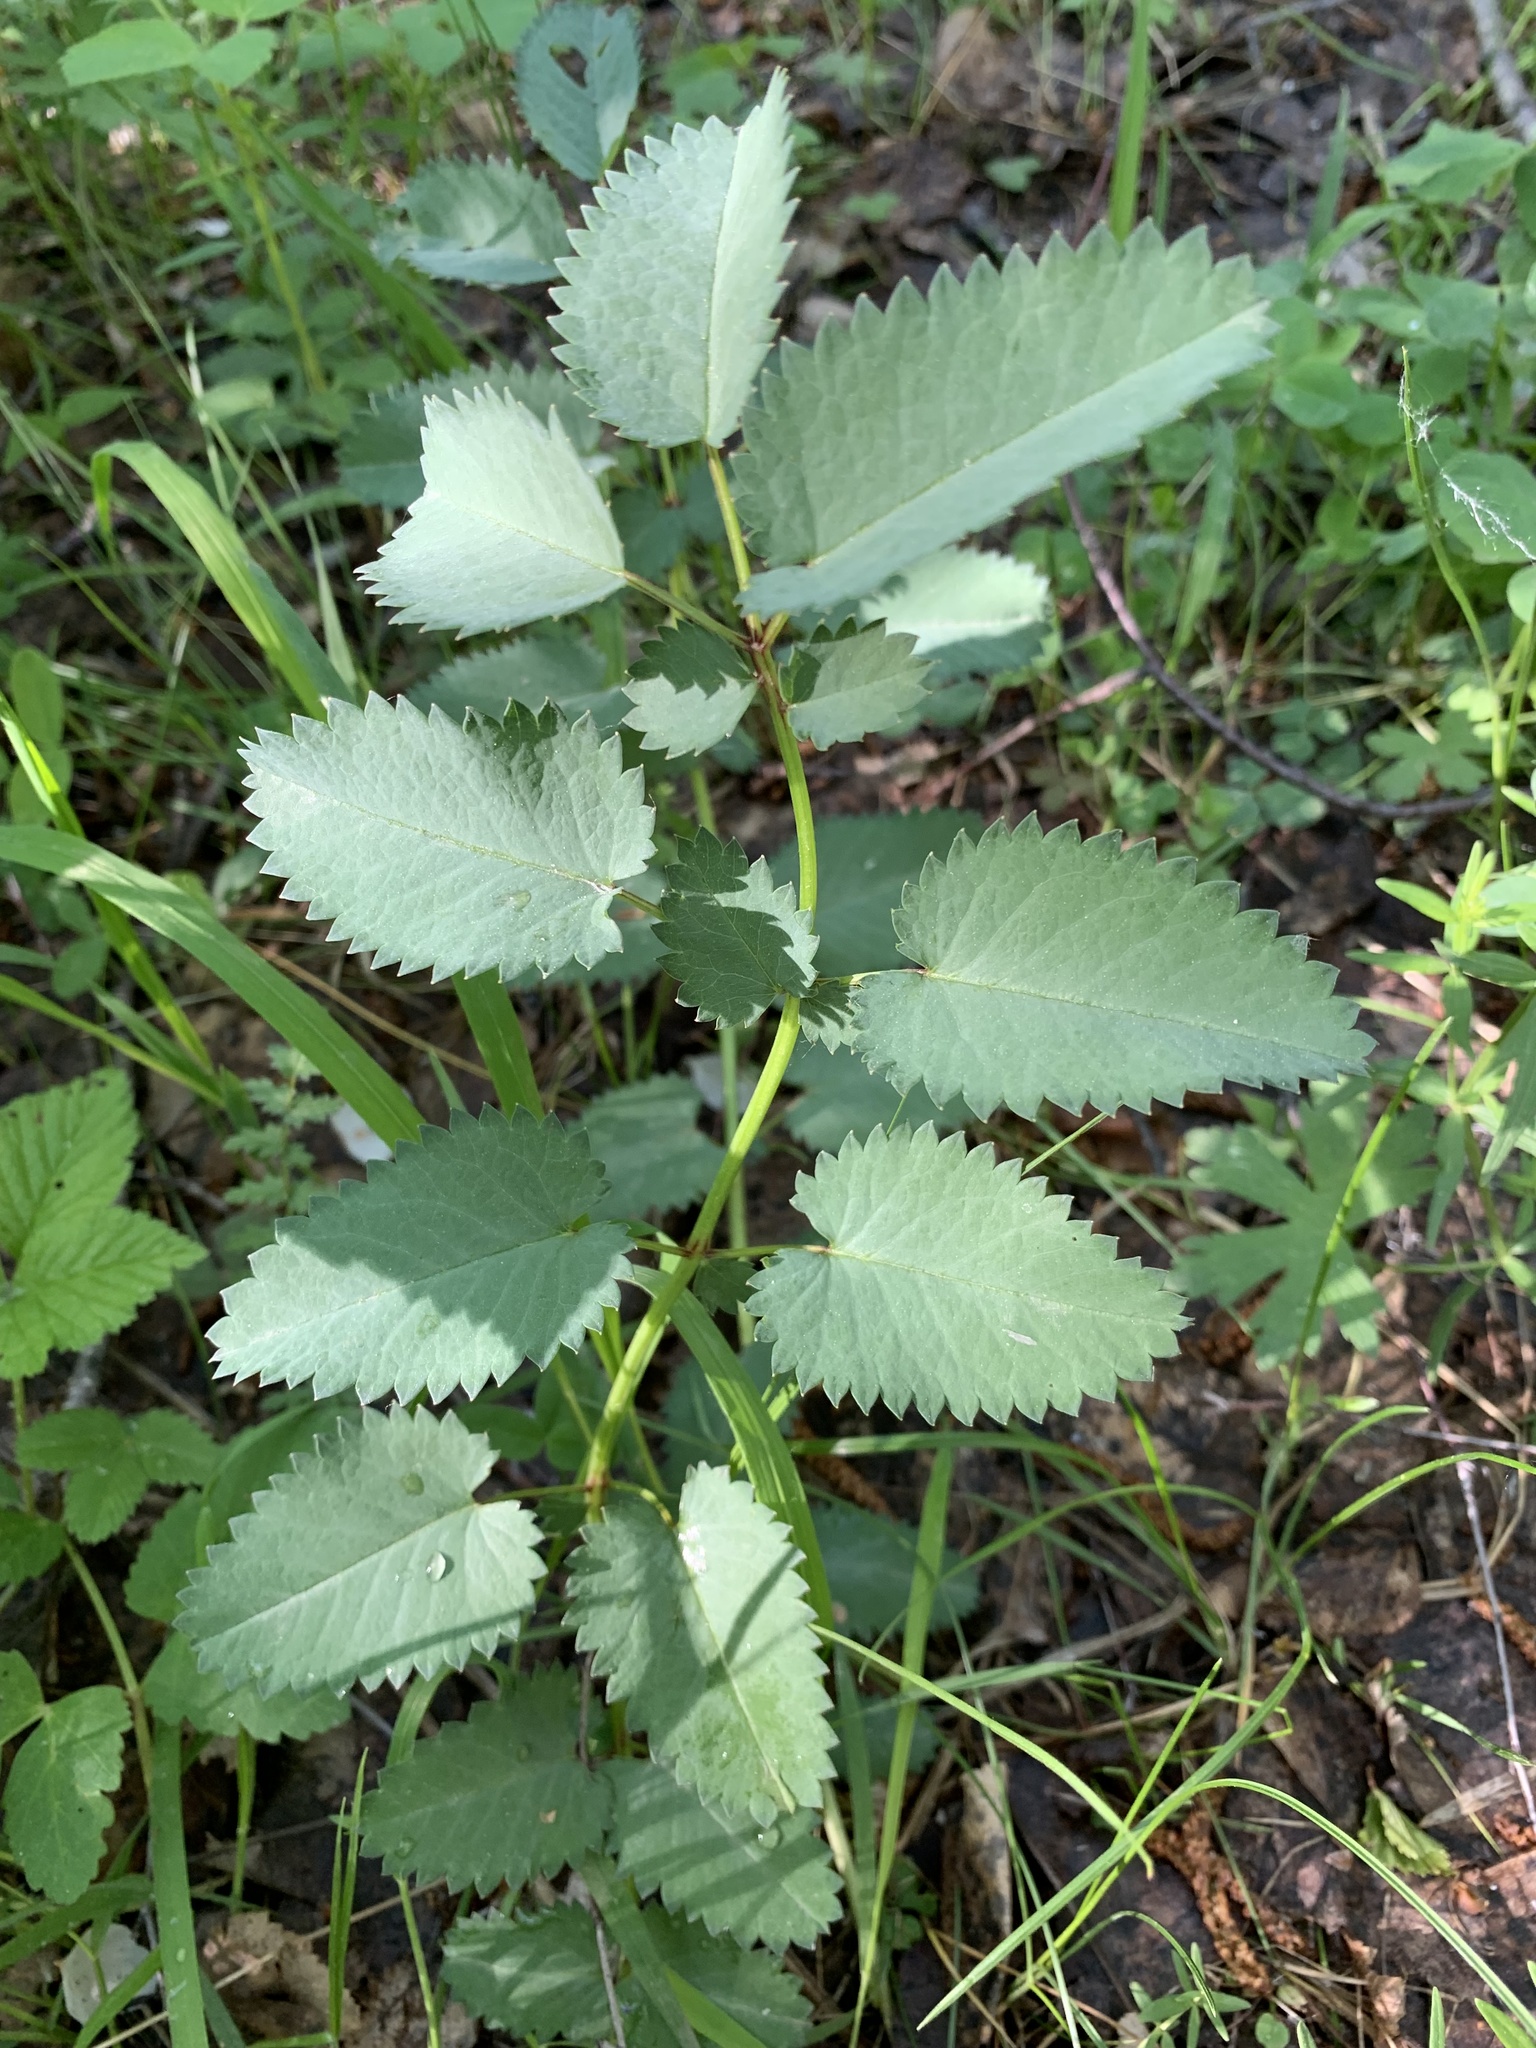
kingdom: Plantae
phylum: Tracheophyta
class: Magnoliopsida
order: Rosales
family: Rosaceae
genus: Sanguisorba
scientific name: Sanguisorba officinalis
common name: Great burnet
